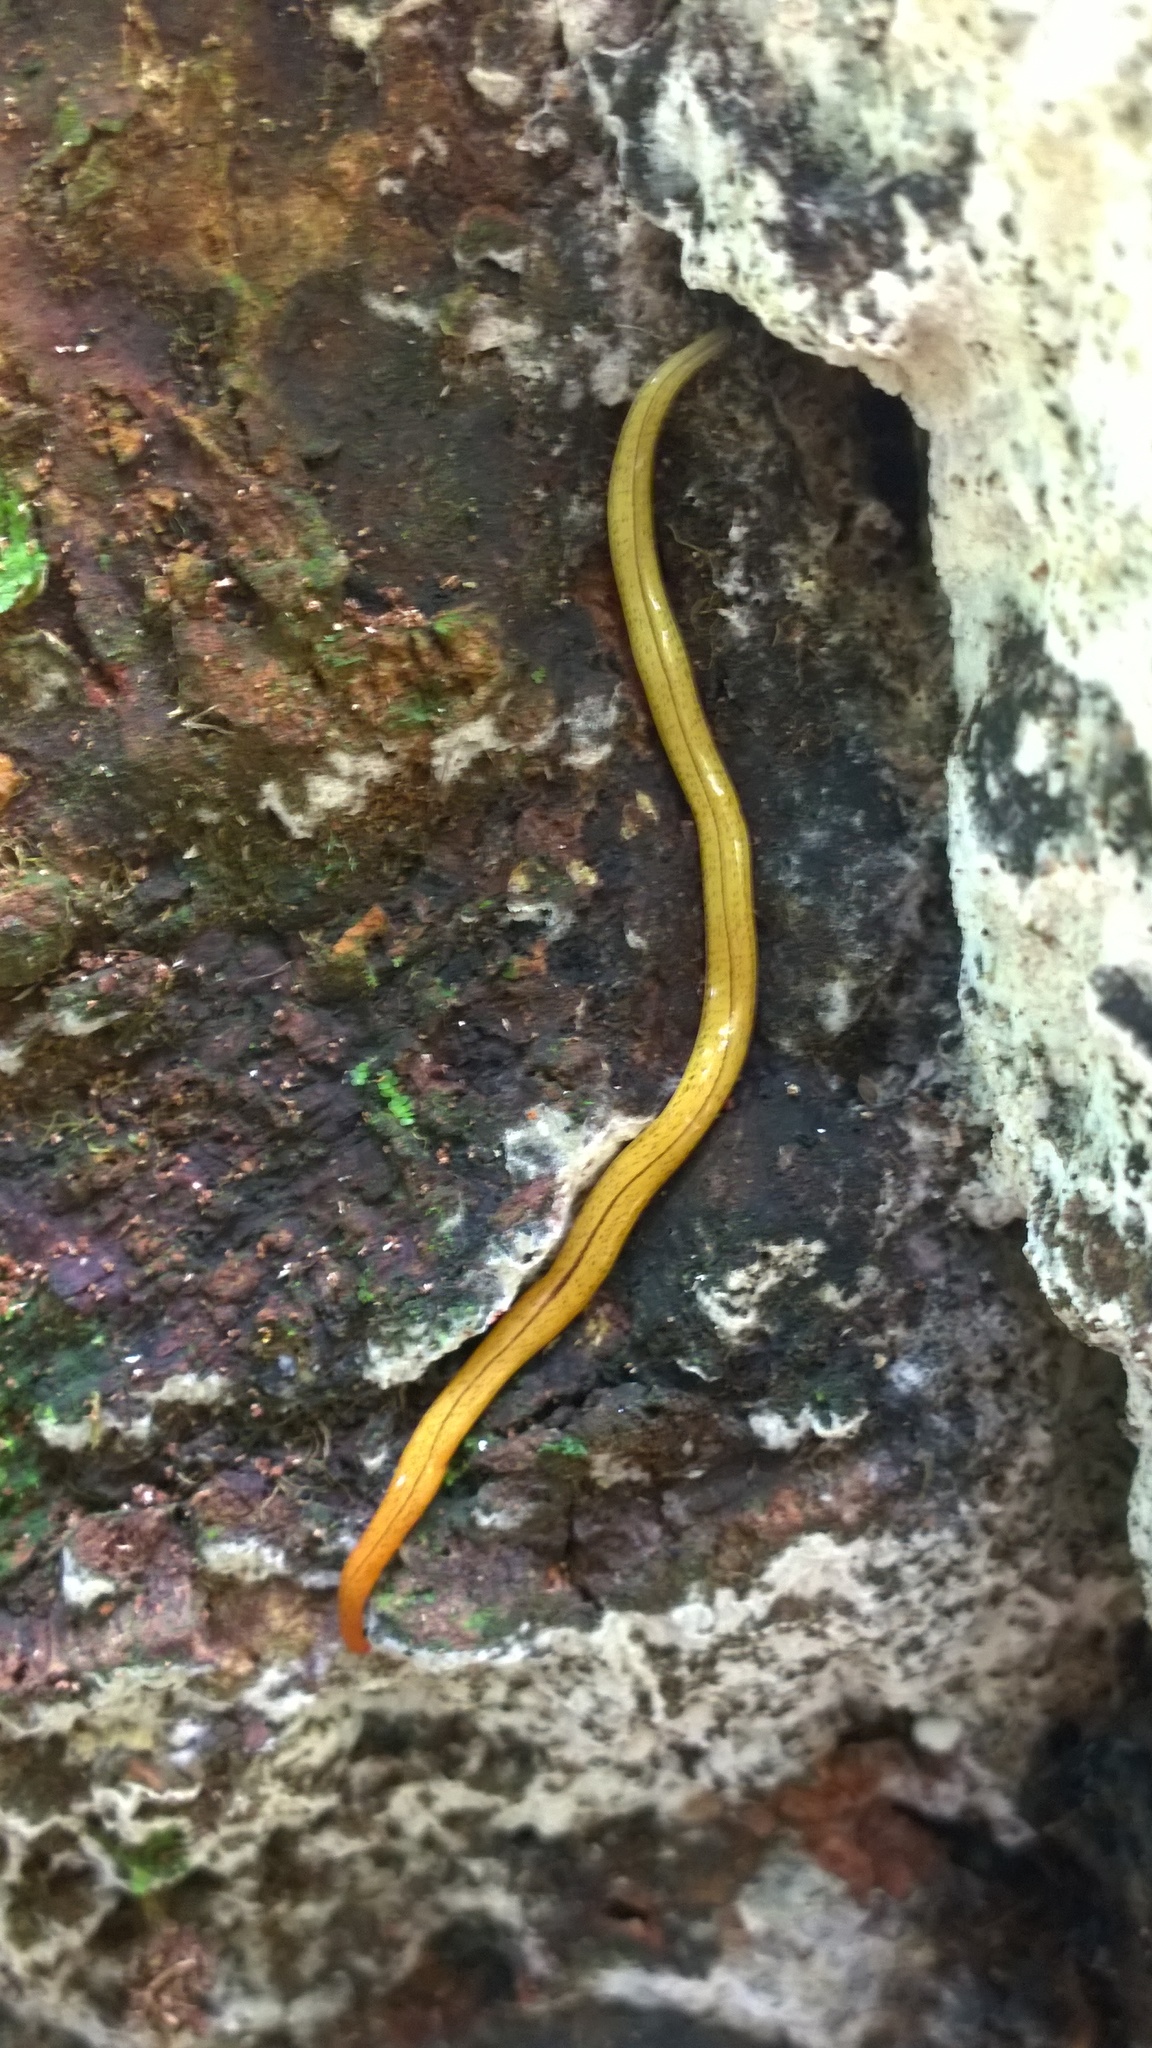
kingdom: Animalia
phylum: Platyhelminthes
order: Tricladida
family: Geoplanidae
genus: Microplana
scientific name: Microplana voeltzkowi
